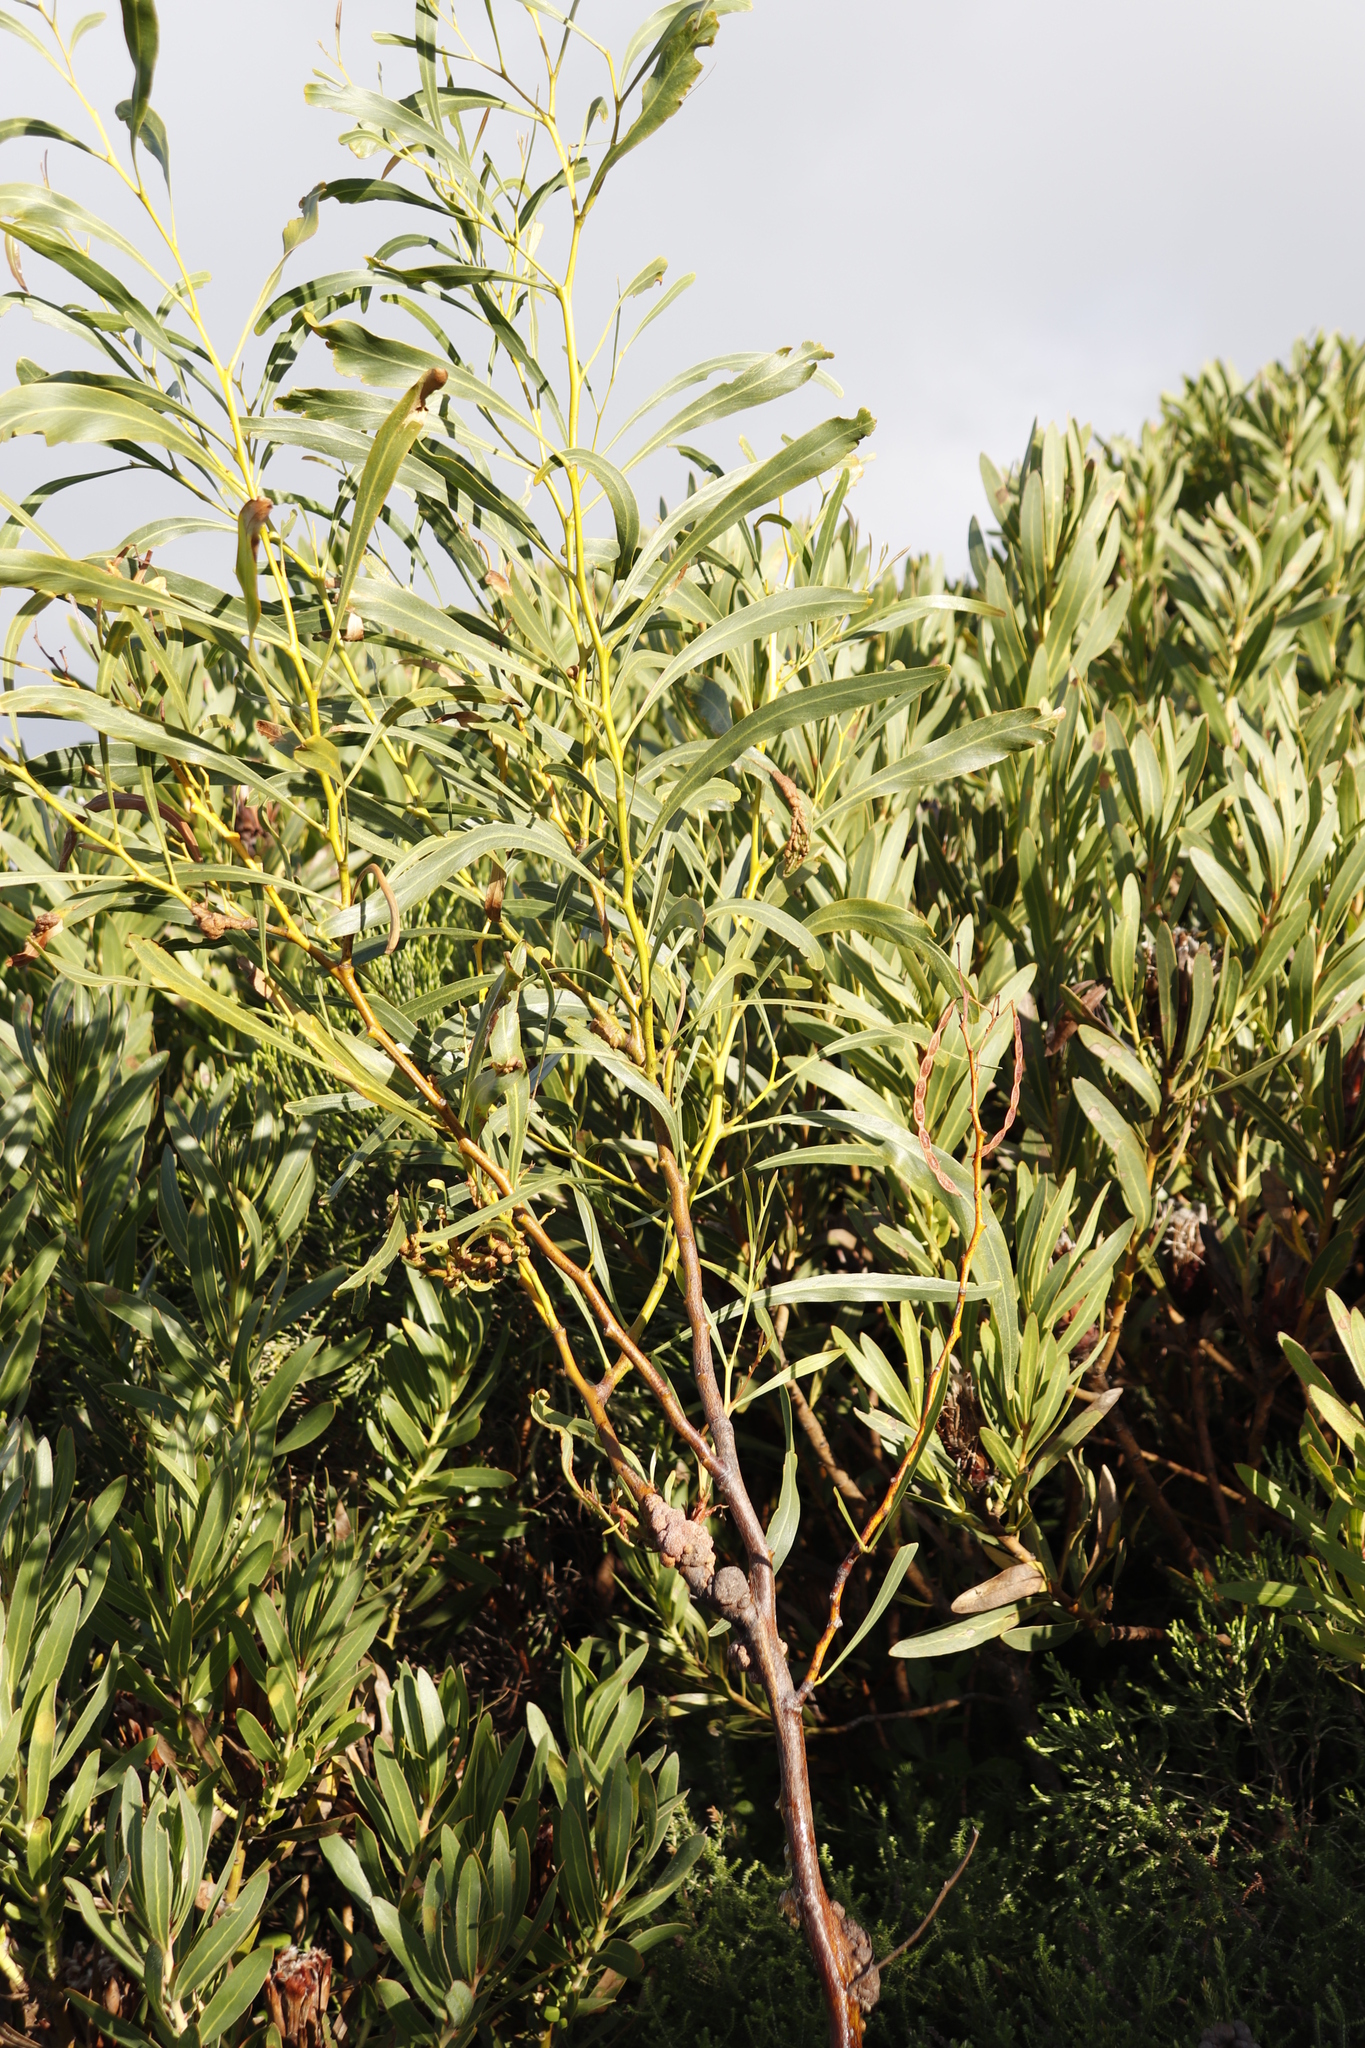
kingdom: Plantae
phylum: Tracheophyta
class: Magnoliopsida
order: Fabales
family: Fabaceae
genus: Acacia
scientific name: Acacia saligna
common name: Orange wattle
